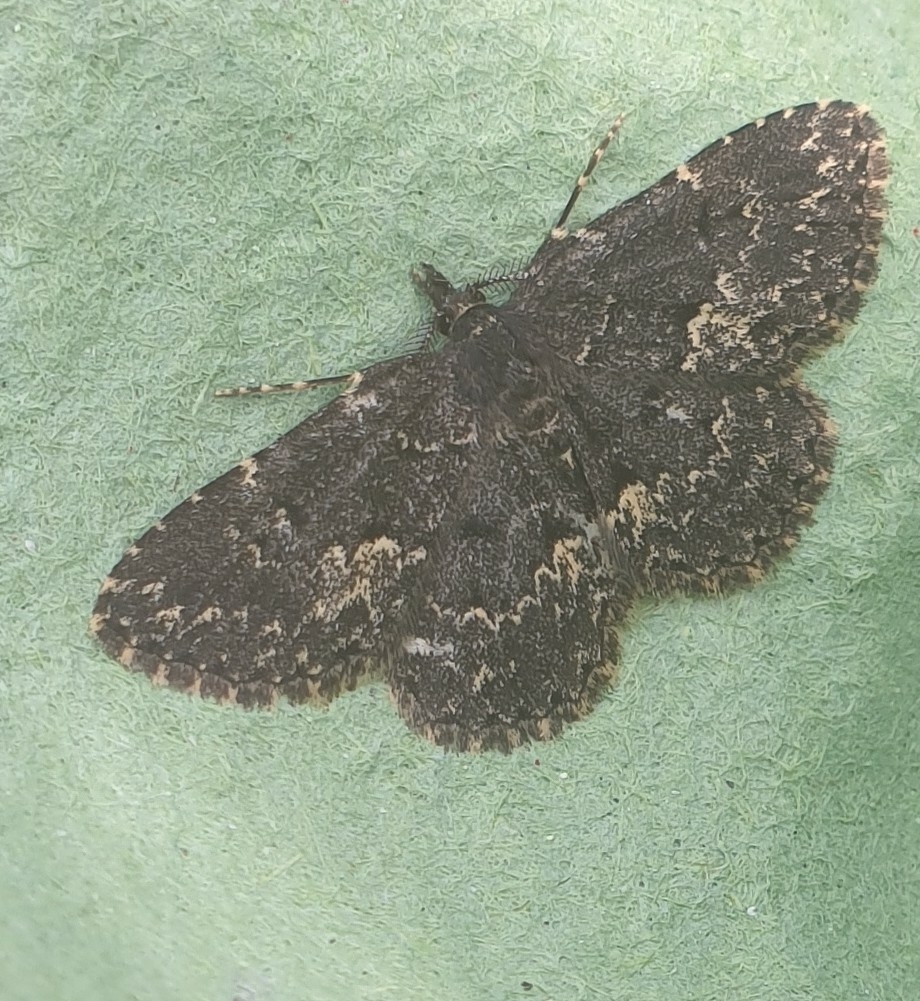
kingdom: Animalia
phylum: Arthropoda
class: Insecta
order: Lepidoptera
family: Erebidae
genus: Parascotia
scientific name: Parascotia fuliginaria
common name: Waved black
